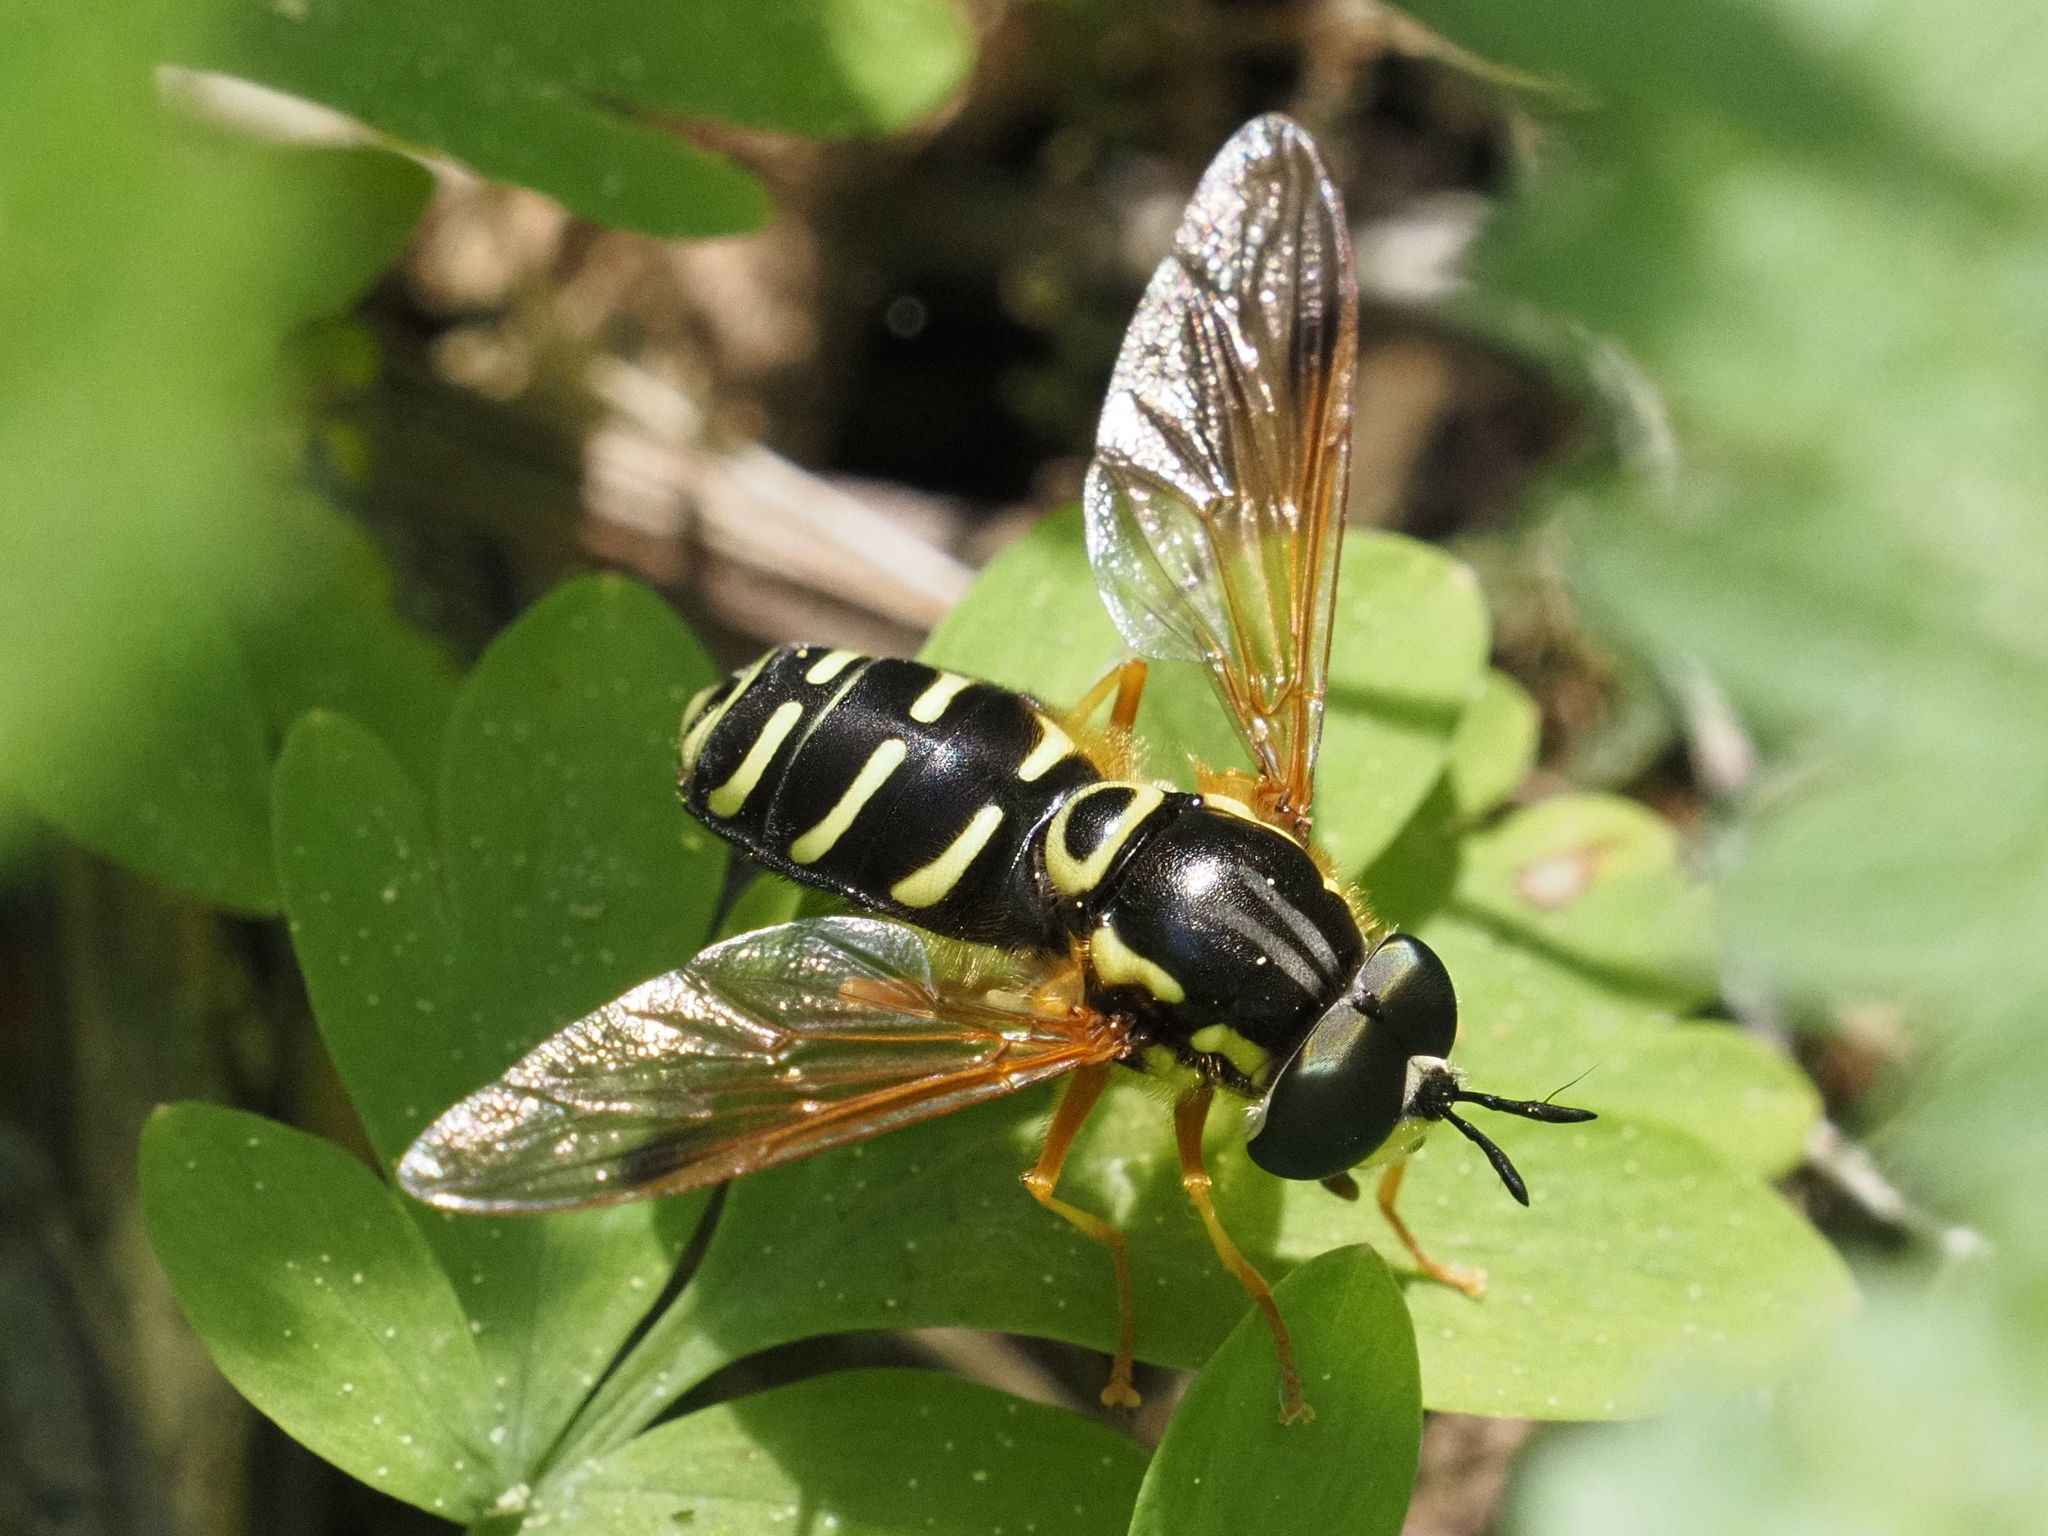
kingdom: Animalia
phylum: Arthropoda
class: Insecta
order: Diptera
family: Syrphidae
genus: Chrysotoxum
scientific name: Chrysotoxum festivum
